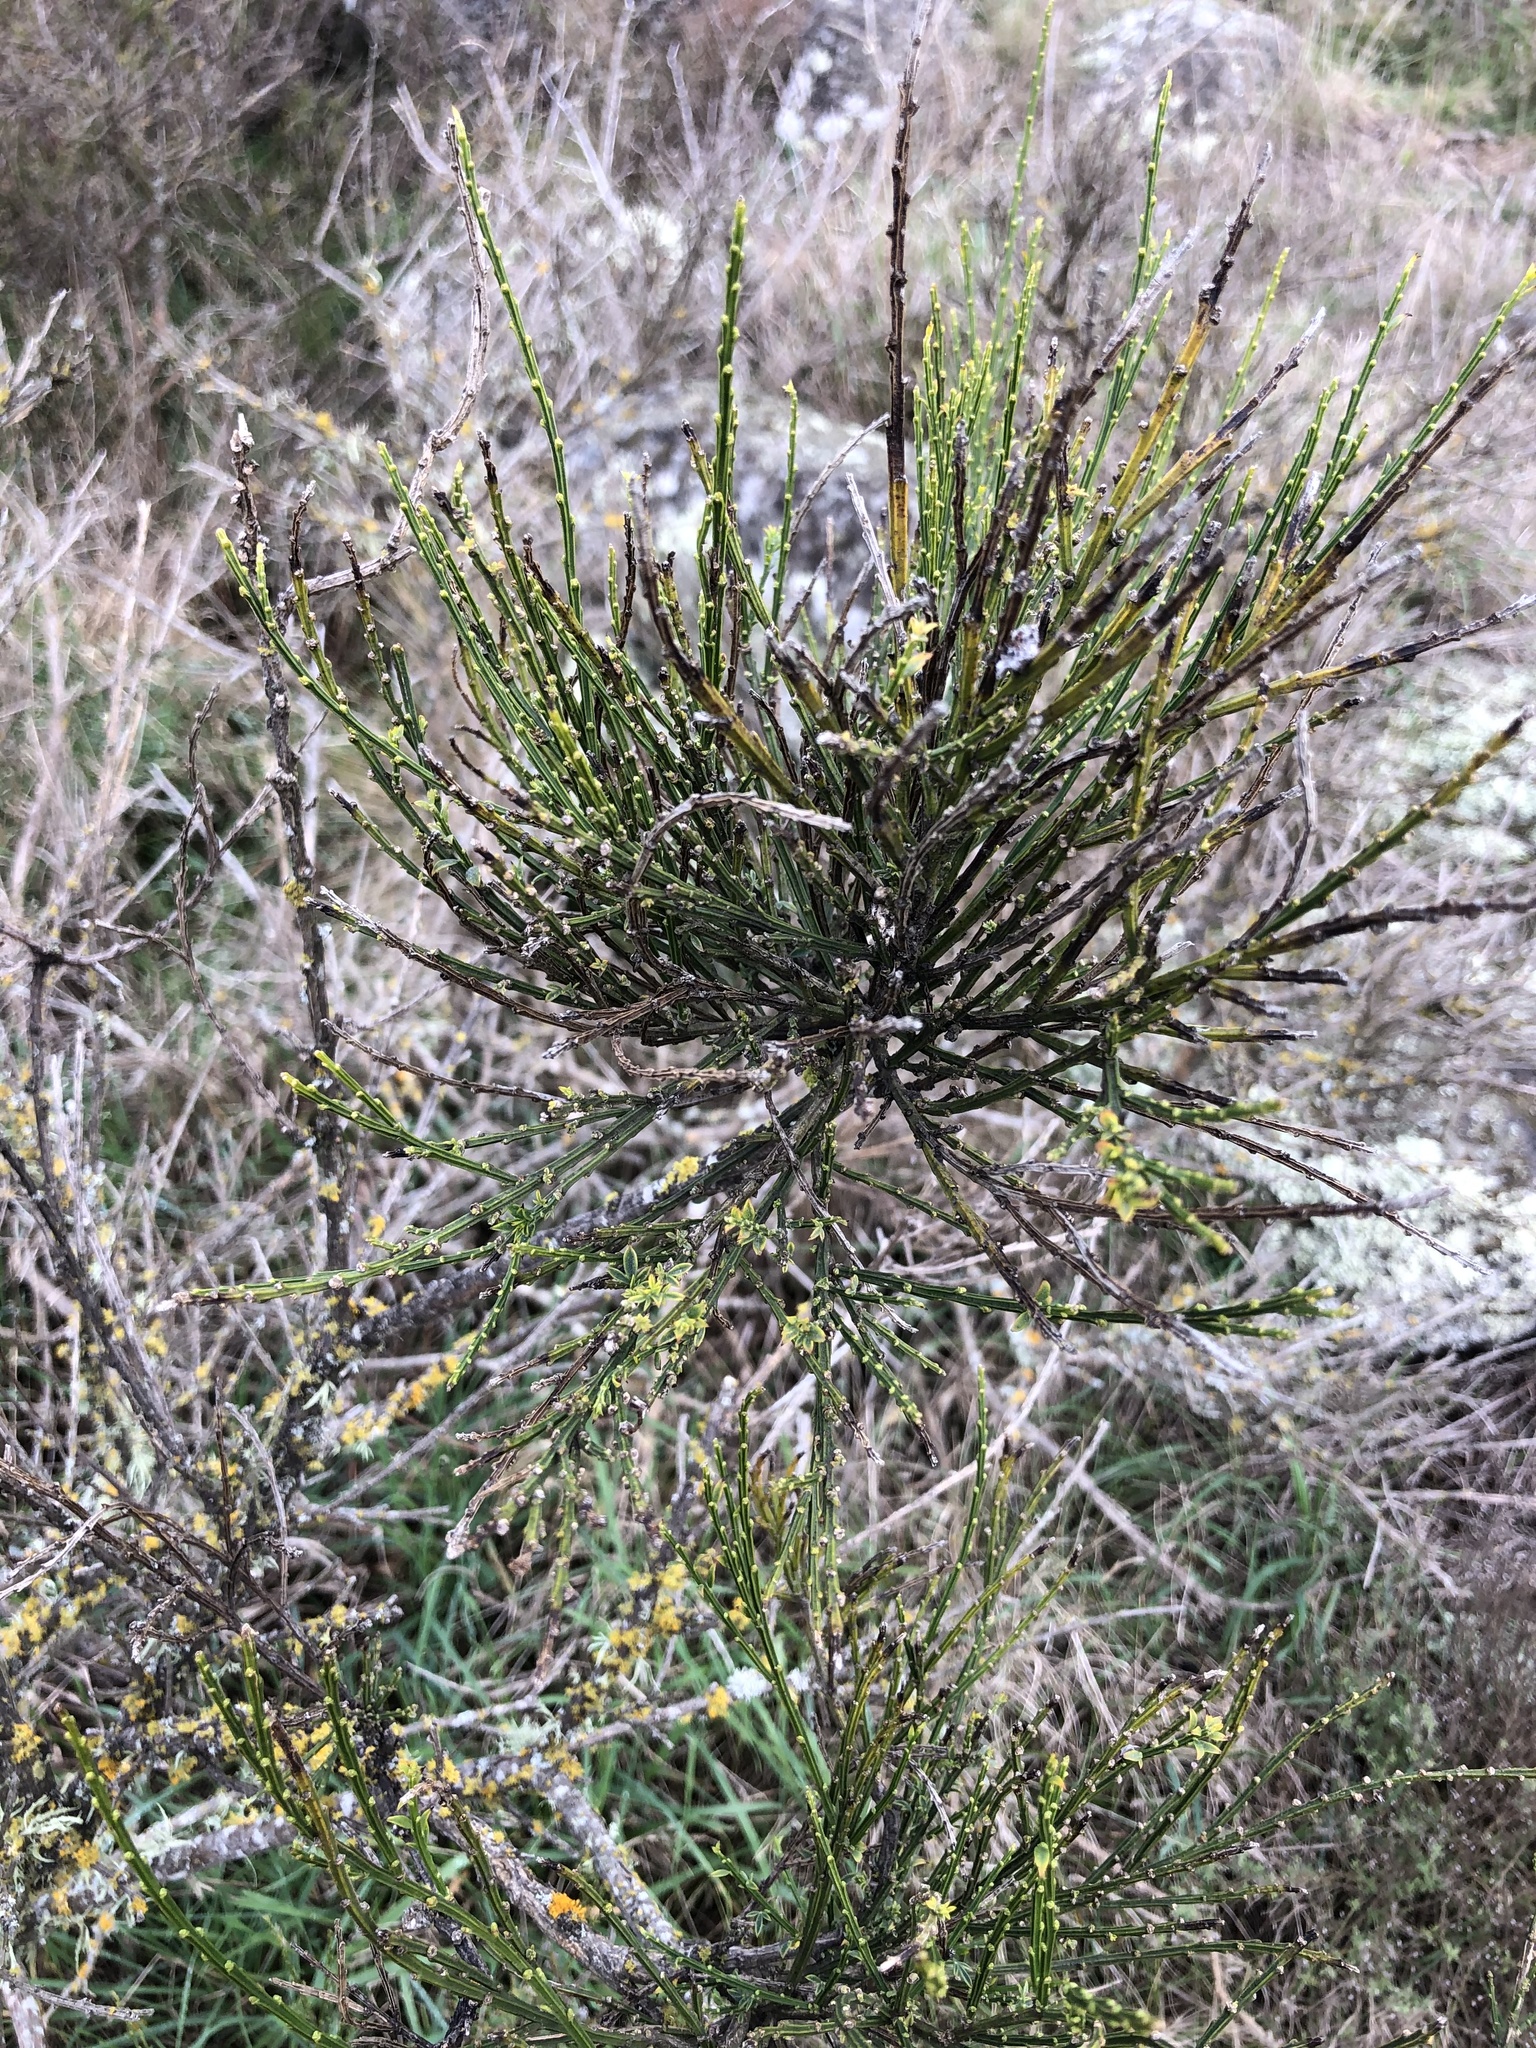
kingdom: Plantae
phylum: Tracheophyta
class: Magnoliopsida
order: Fabales
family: Fabaceae
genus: Cytisus
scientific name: Cytisus scoparius
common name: Scotch broom
